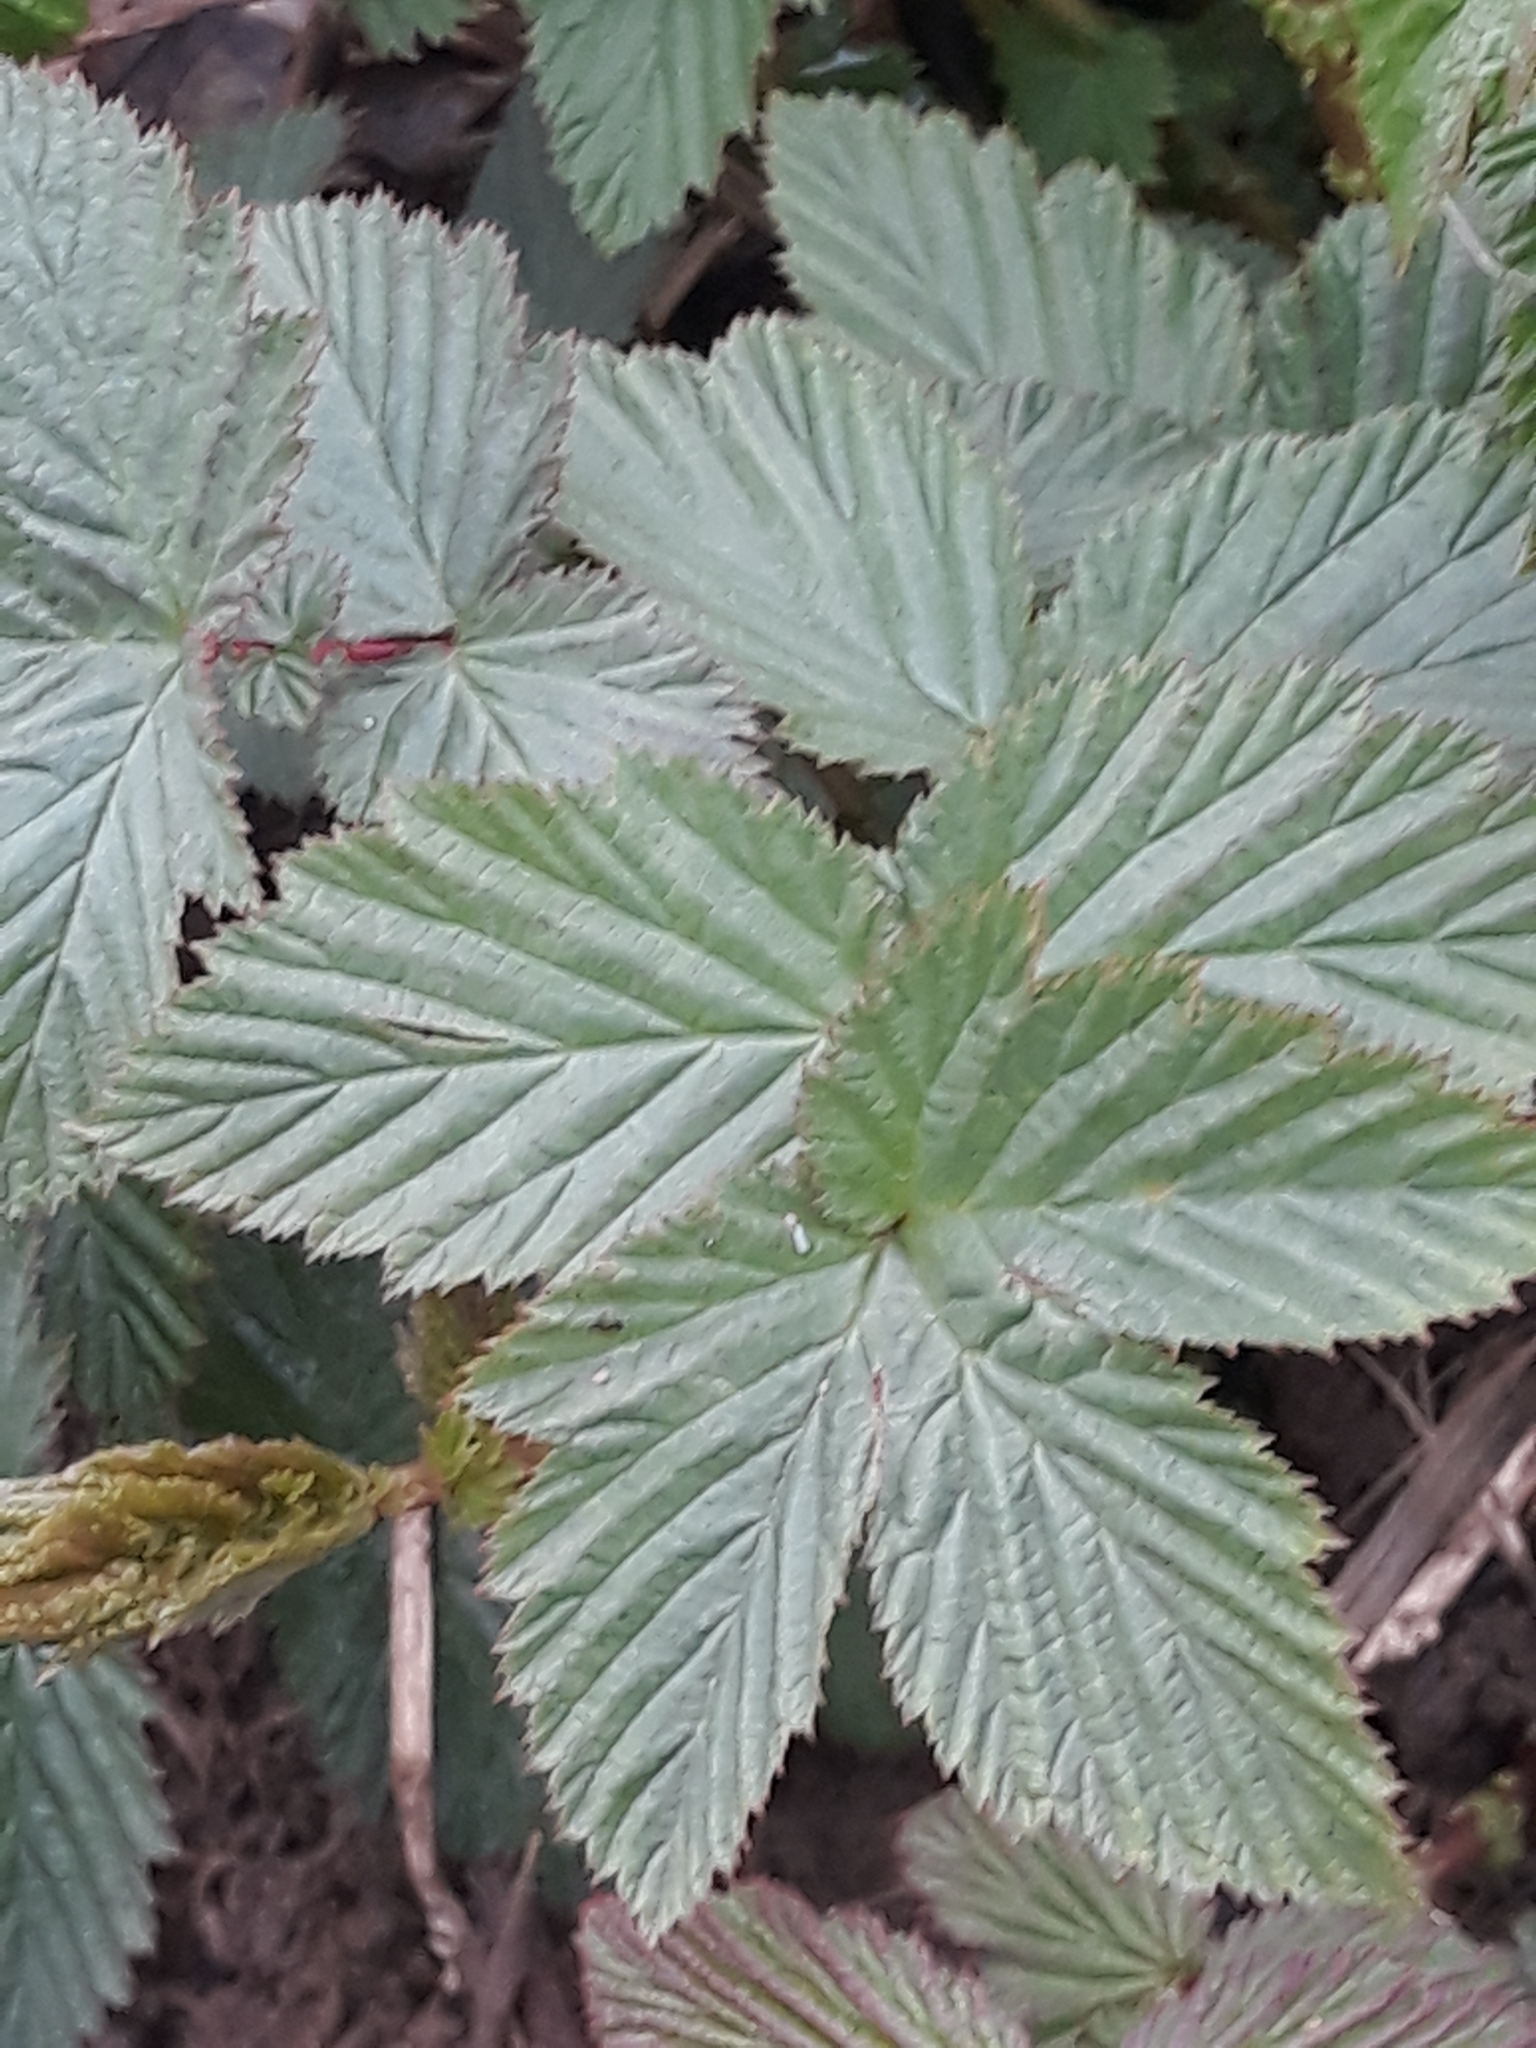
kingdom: Plantae
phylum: Tracheophyta
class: Magnoliopsida
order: Rosales
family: Rosaceae
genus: Filipendula
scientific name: Filipendula ulmaria
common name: Meadowsweet
